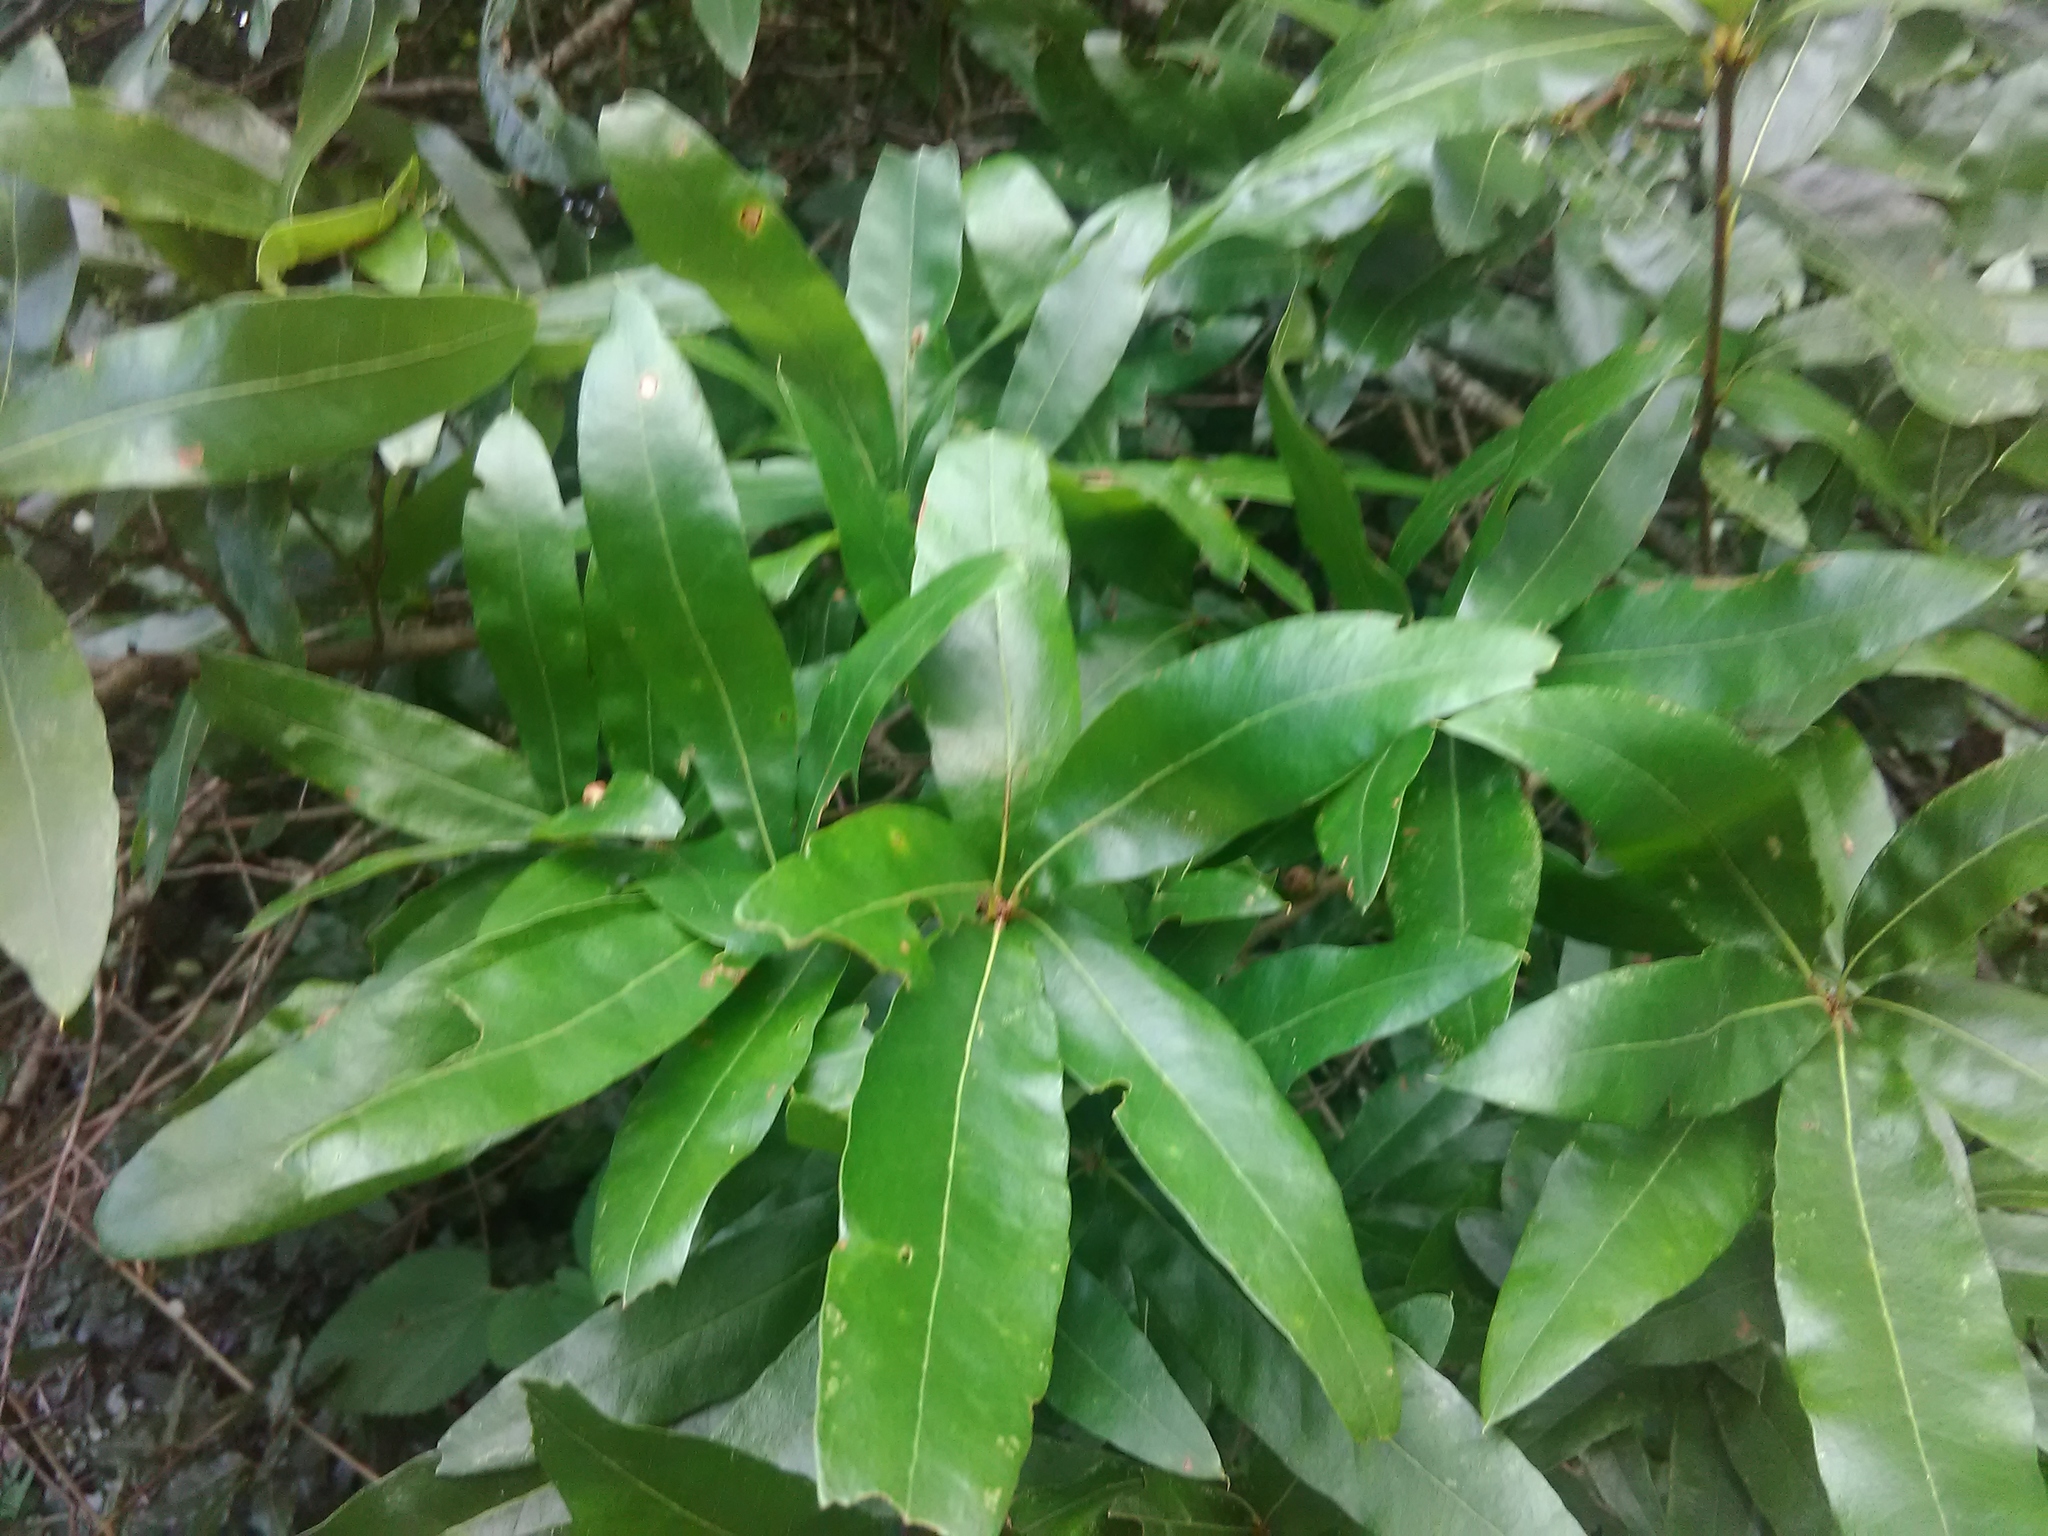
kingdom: Plantae
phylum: Tracheophyta
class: Magnoliopsida
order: Fagales
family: Fagaceae
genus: Quercus
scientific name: Quercus phellos
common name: Willow oak
